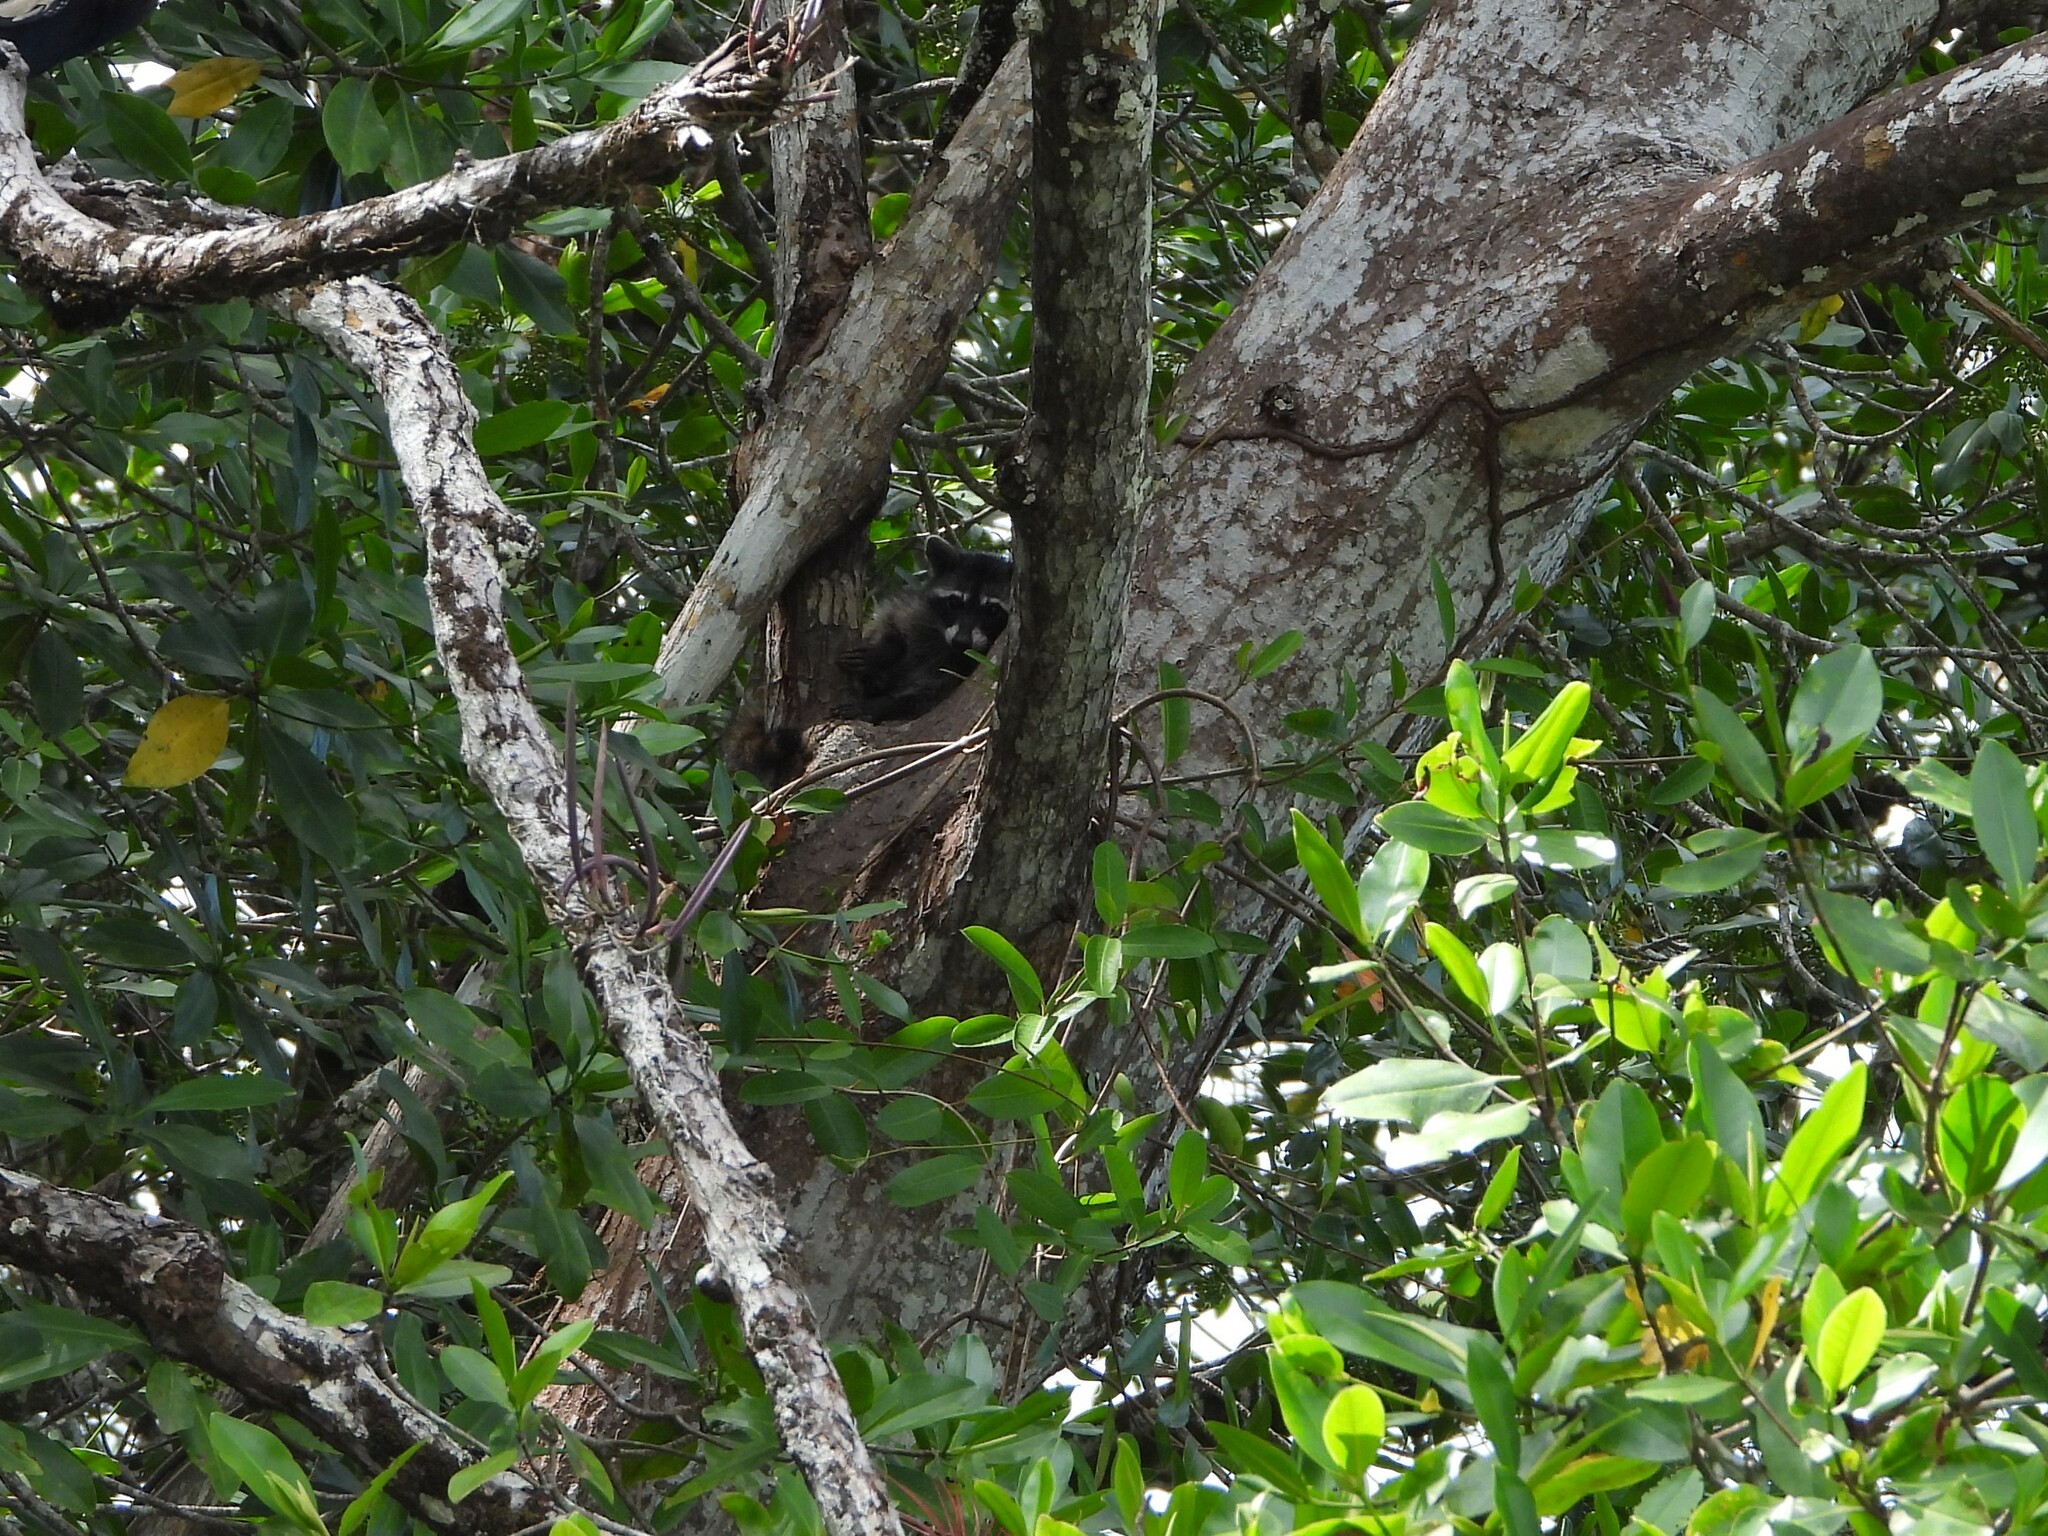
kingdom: Animalia
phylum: Chordata
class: Mammalia
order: Carnivora
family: Procyonidae
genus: Procyon
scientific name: Procyon lotor
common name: Raccoon
